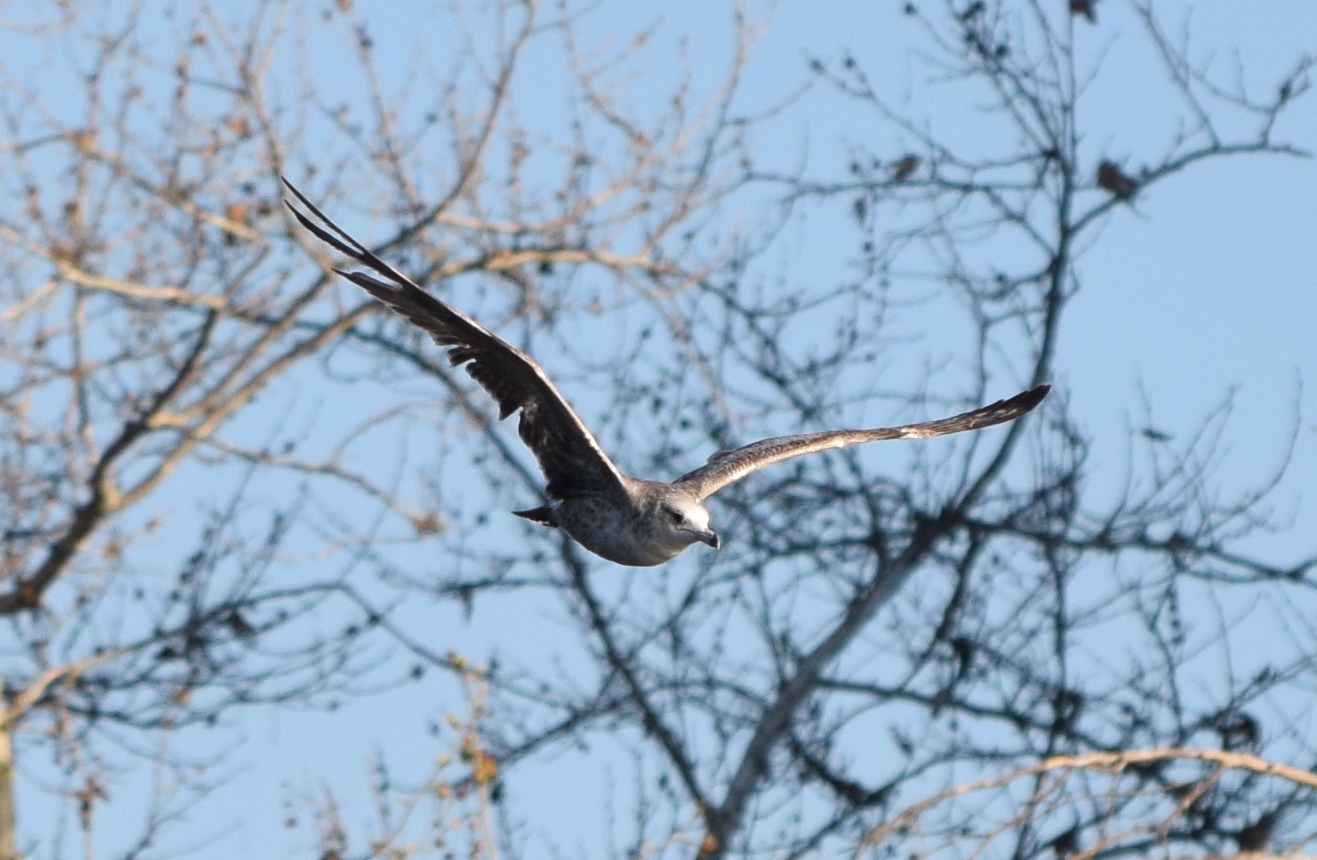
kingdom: Animalia
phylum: Chordata
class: Aves
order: Charadriiformes
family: Laridae
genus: Larus
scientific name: Larus californicus
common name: California gull
